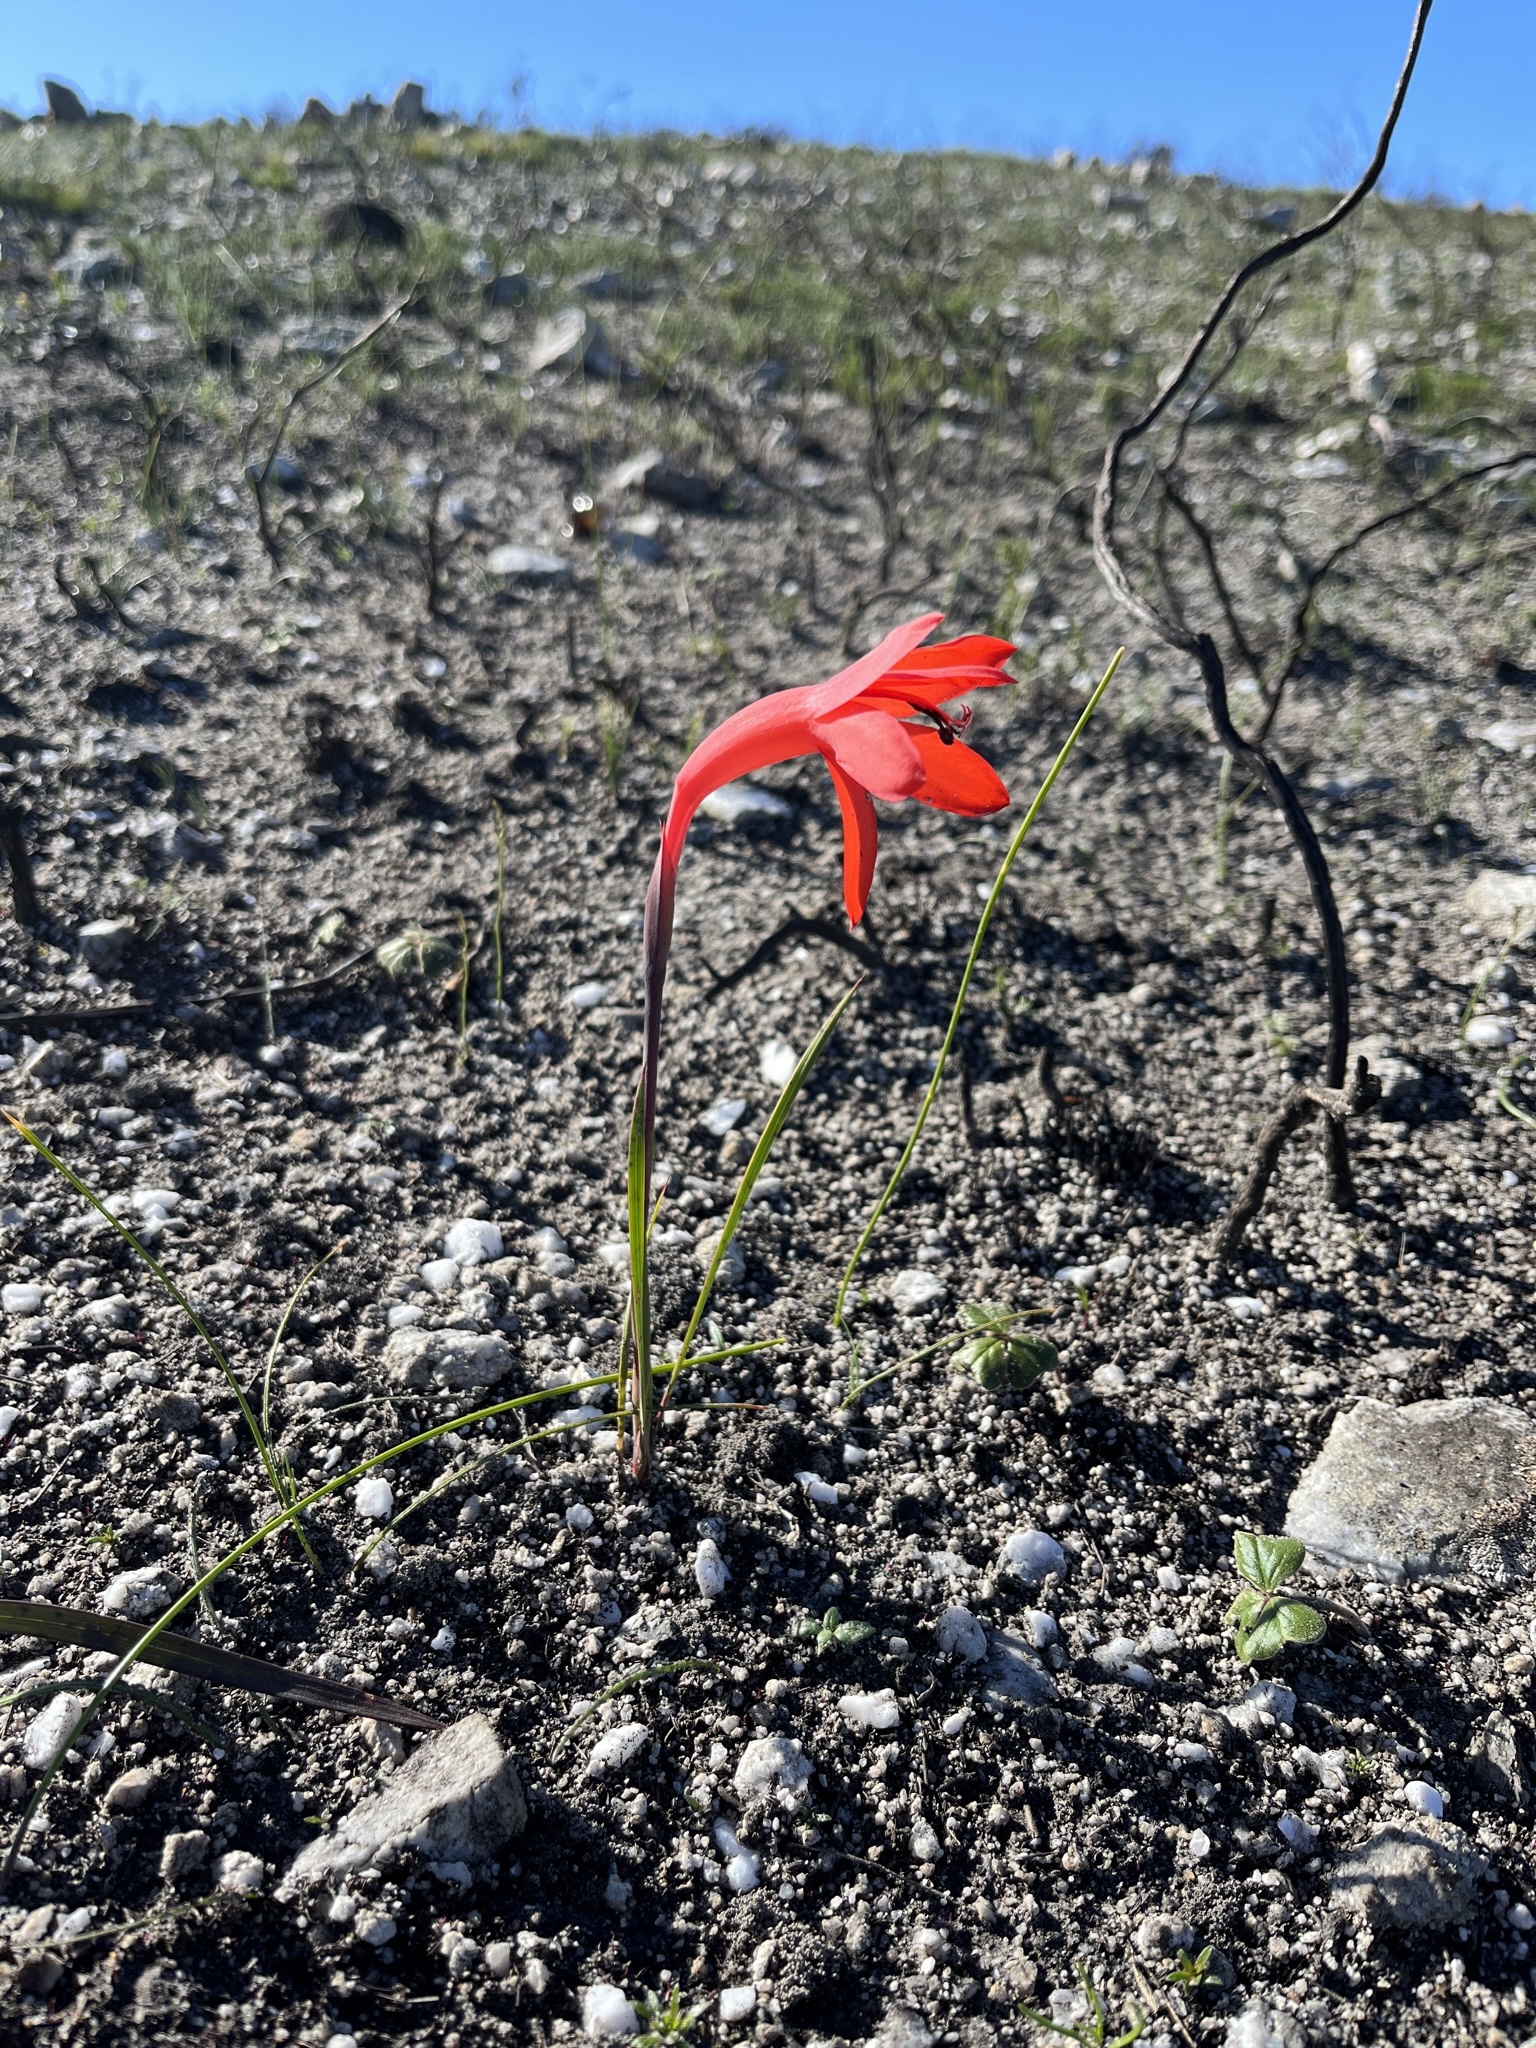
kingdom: Plantae
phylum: Tracheophyta
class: Liliopsida
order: Asparagales
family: Iridaceae
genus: Watsonia
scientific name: Watsonia coccinea
